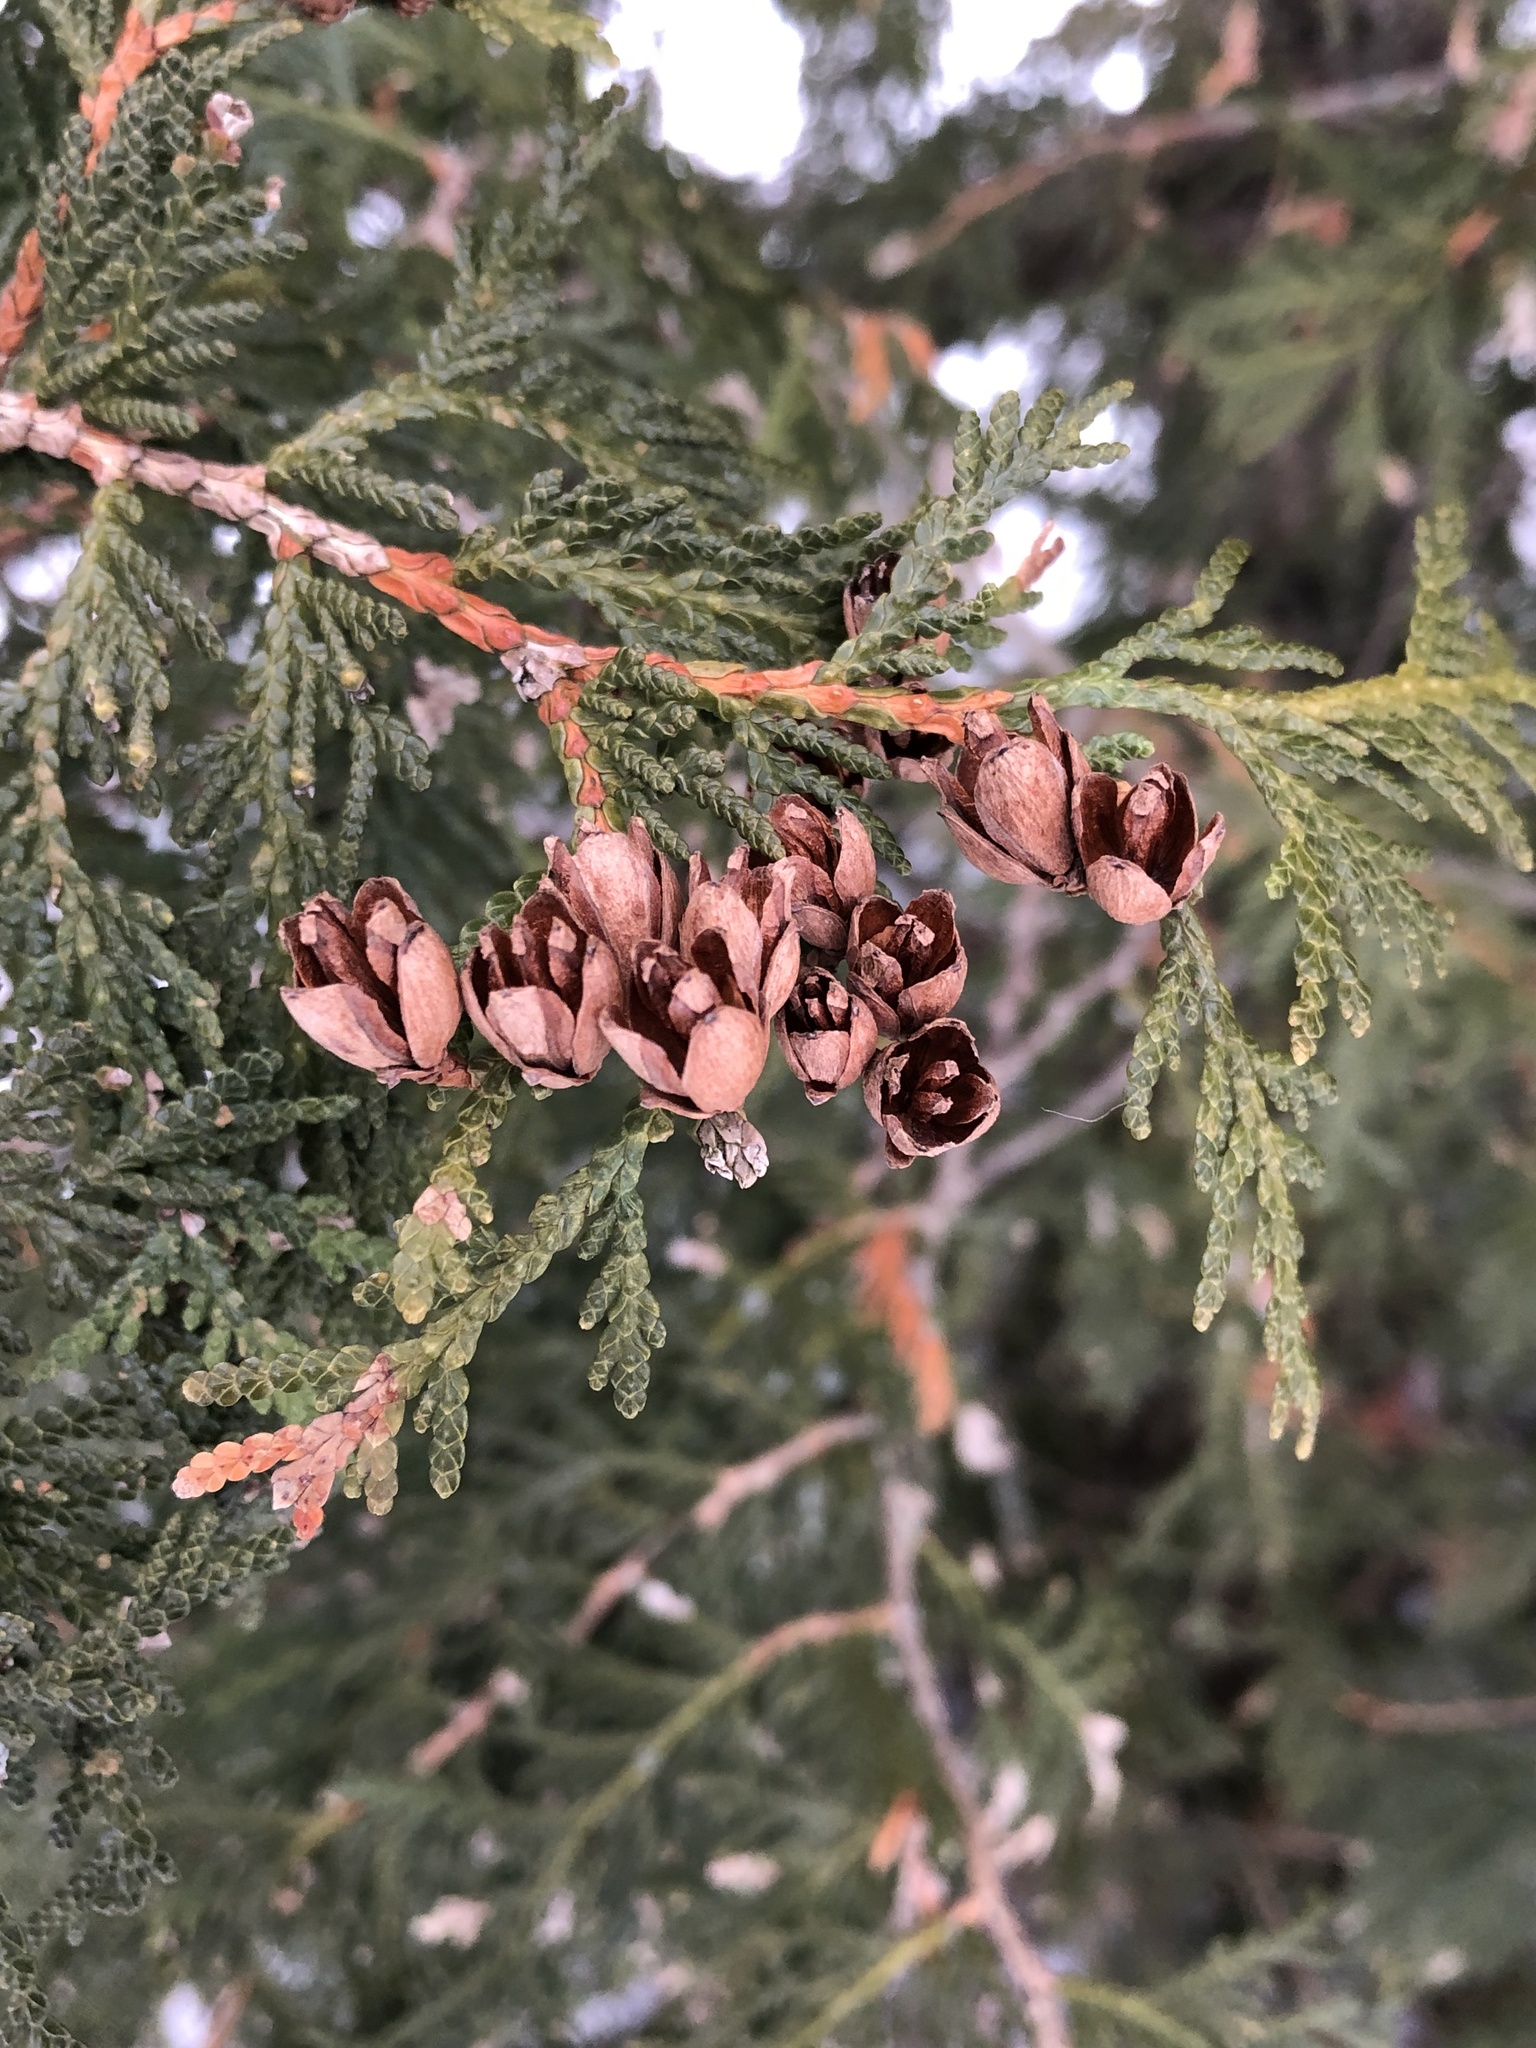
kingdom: Plantae
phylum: Tracheophyta
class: Pinopsida
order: Pinales
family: Cupressaceae
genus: Thuja
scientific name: Thuja occidentalis
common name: Northern white-cedar
